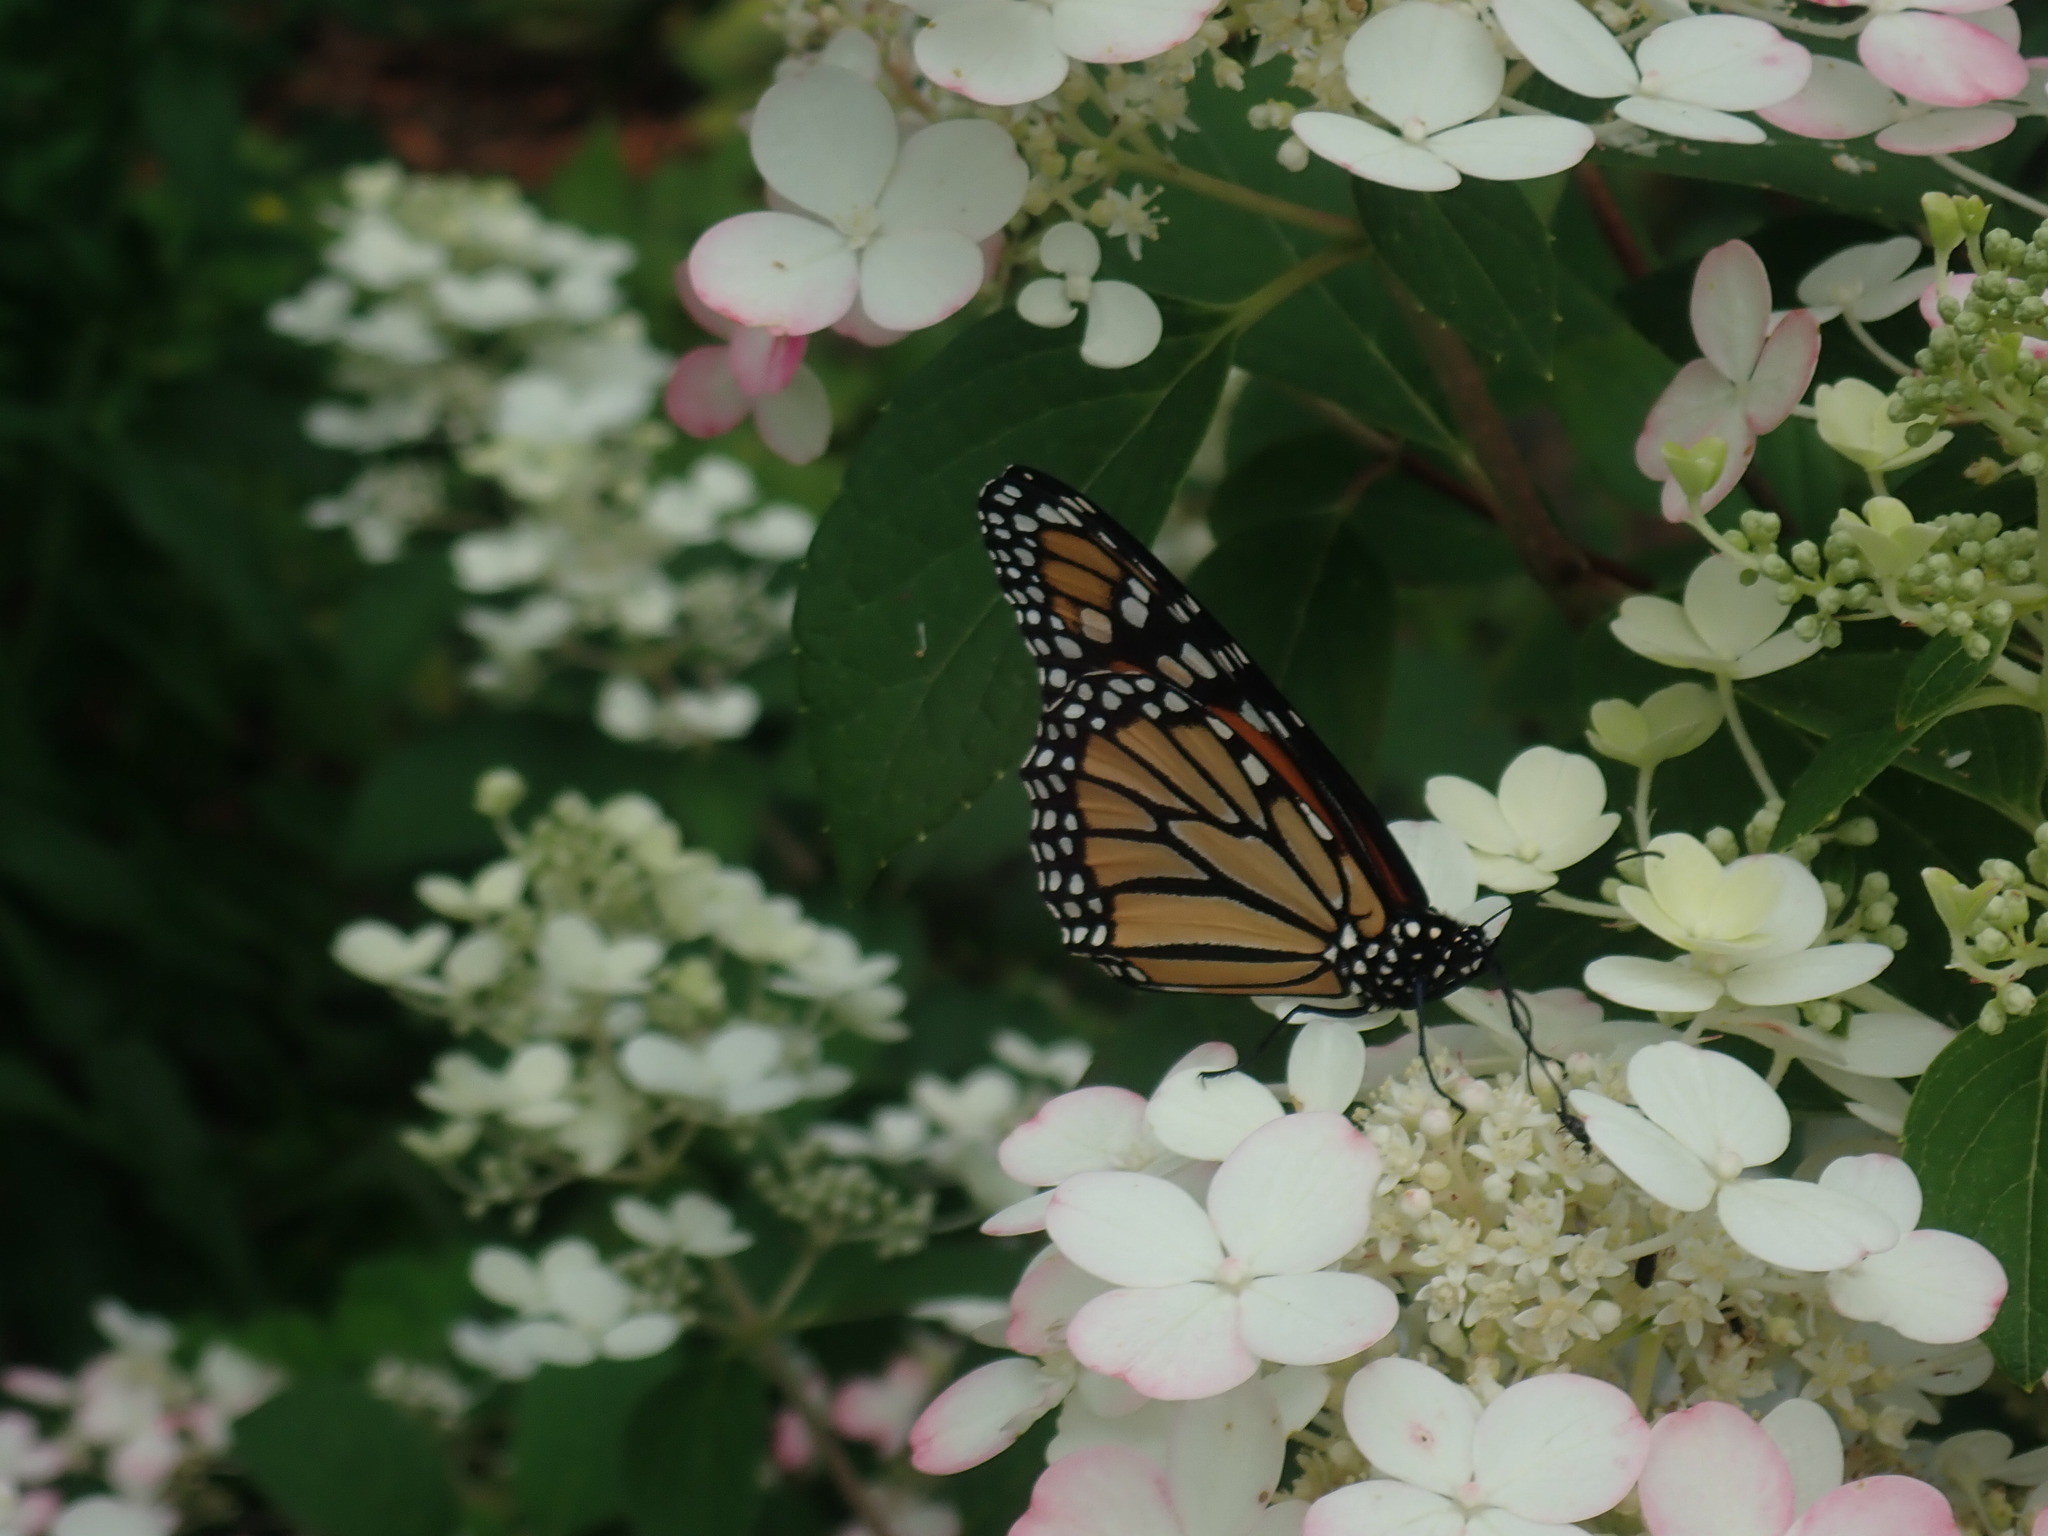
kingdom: Animalia
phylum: Arthropoda
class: Insecta
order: Lepidoptera
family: Nymphalidae
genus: Danaus
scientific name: Danaus plexippus
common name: Monarch
